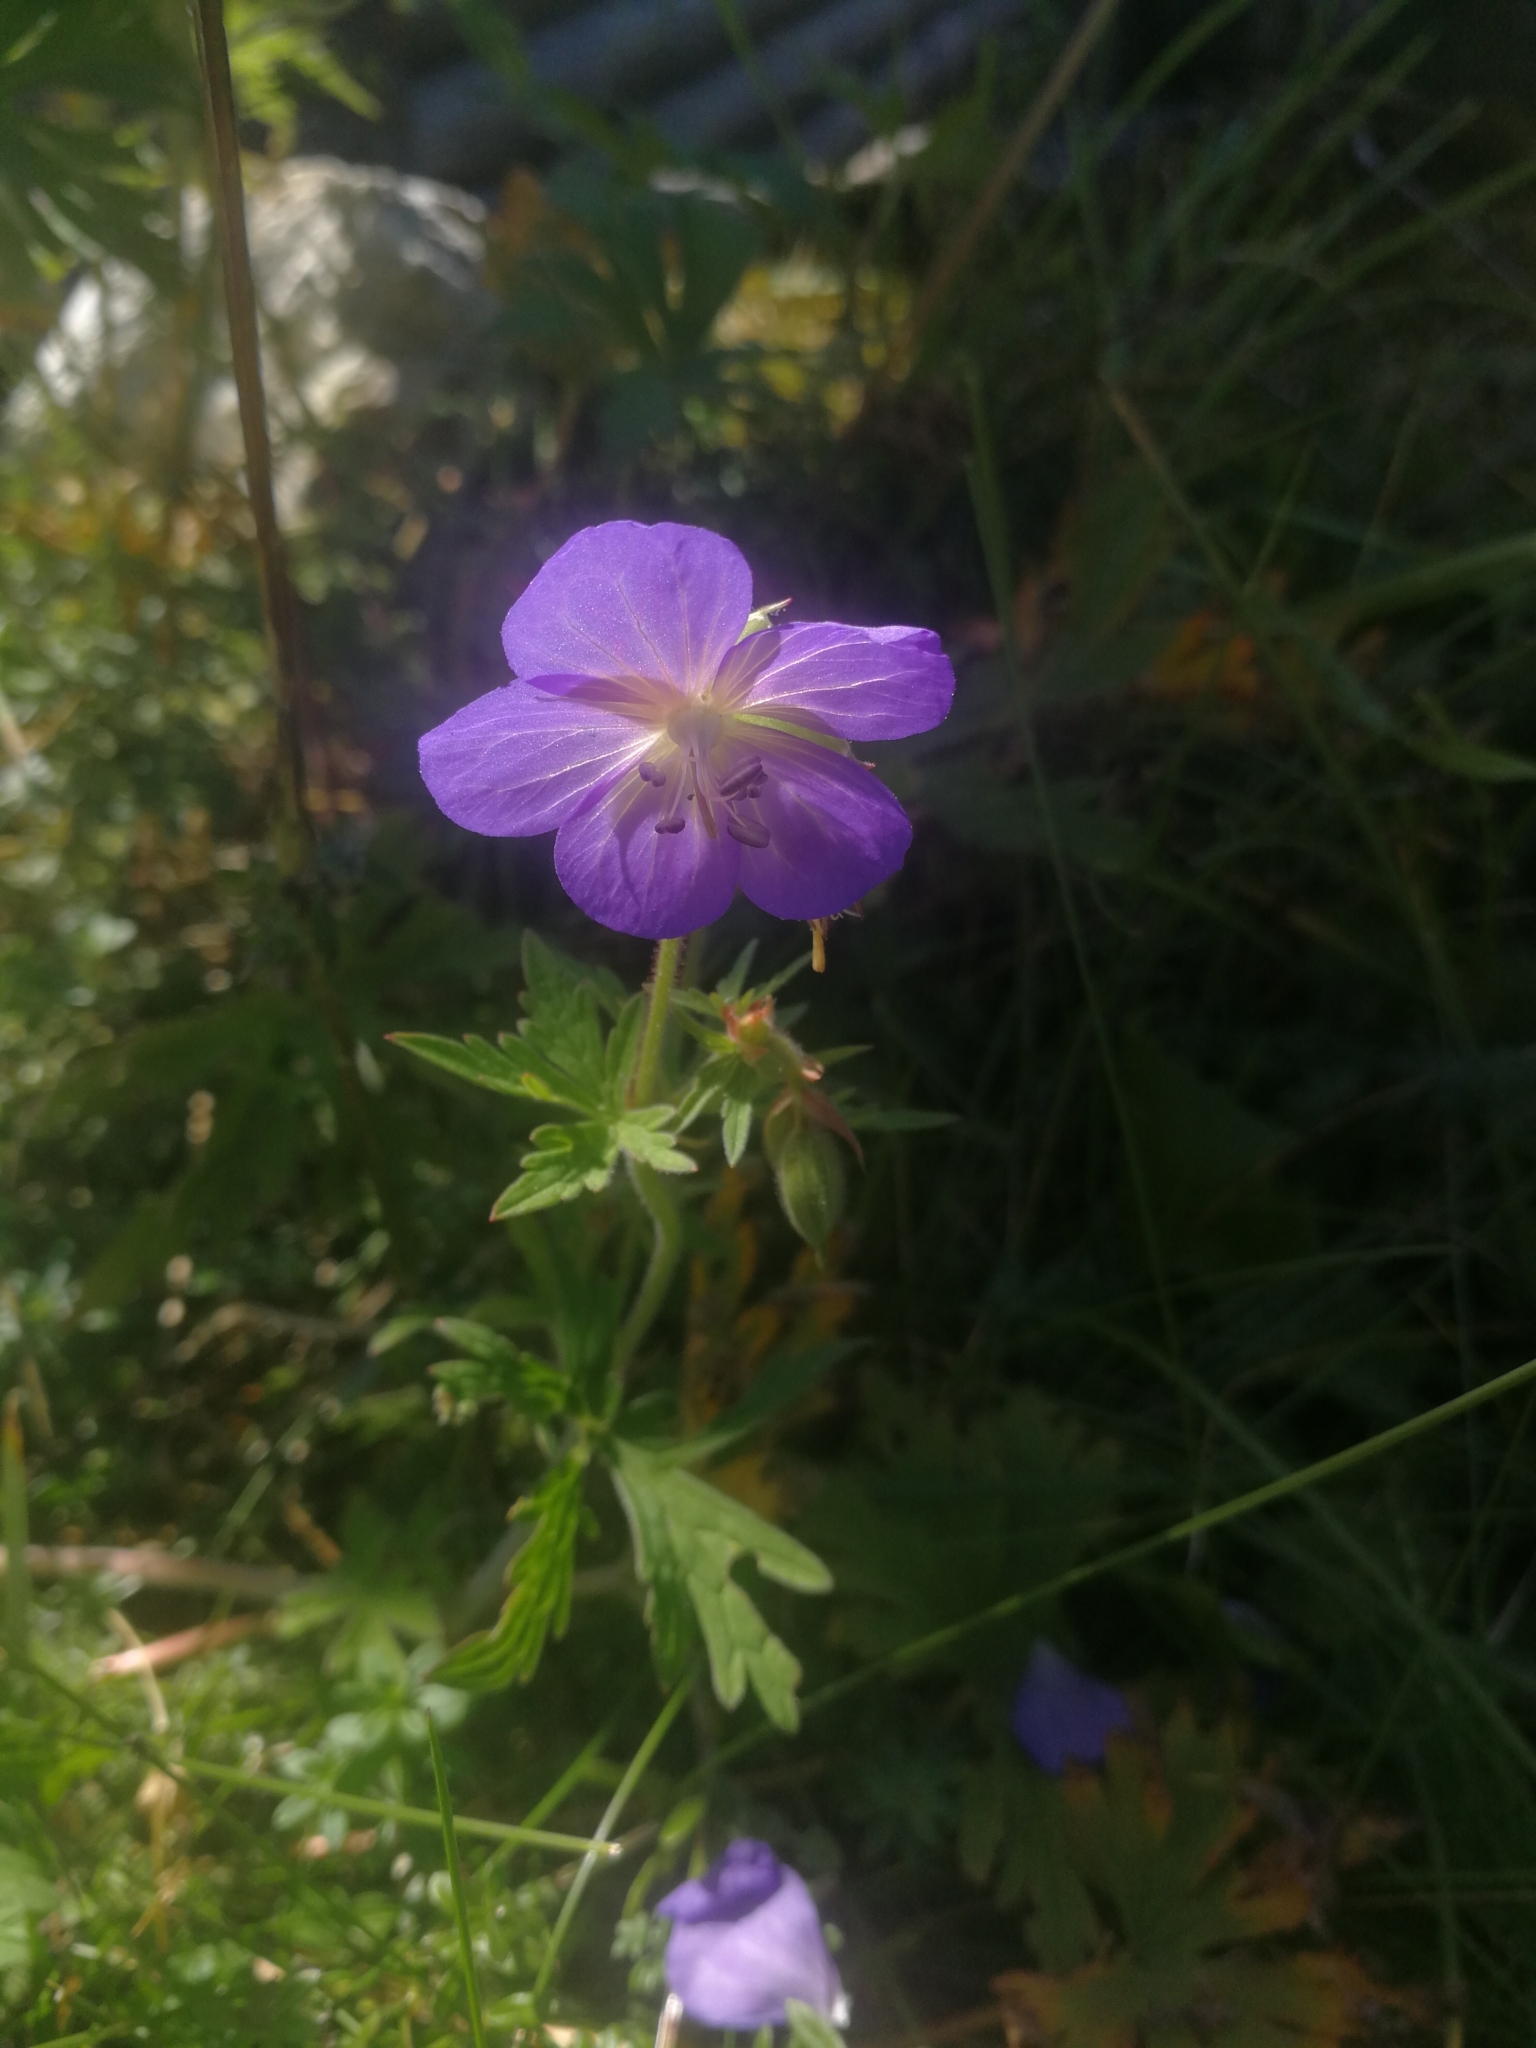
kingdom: Plantae
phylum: Tracheophyta
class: Magnoliopsida
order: Geraniales
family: Geraniaceae
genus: Geranium
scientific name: Geranium pratense
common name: Meadow crane's-bill
